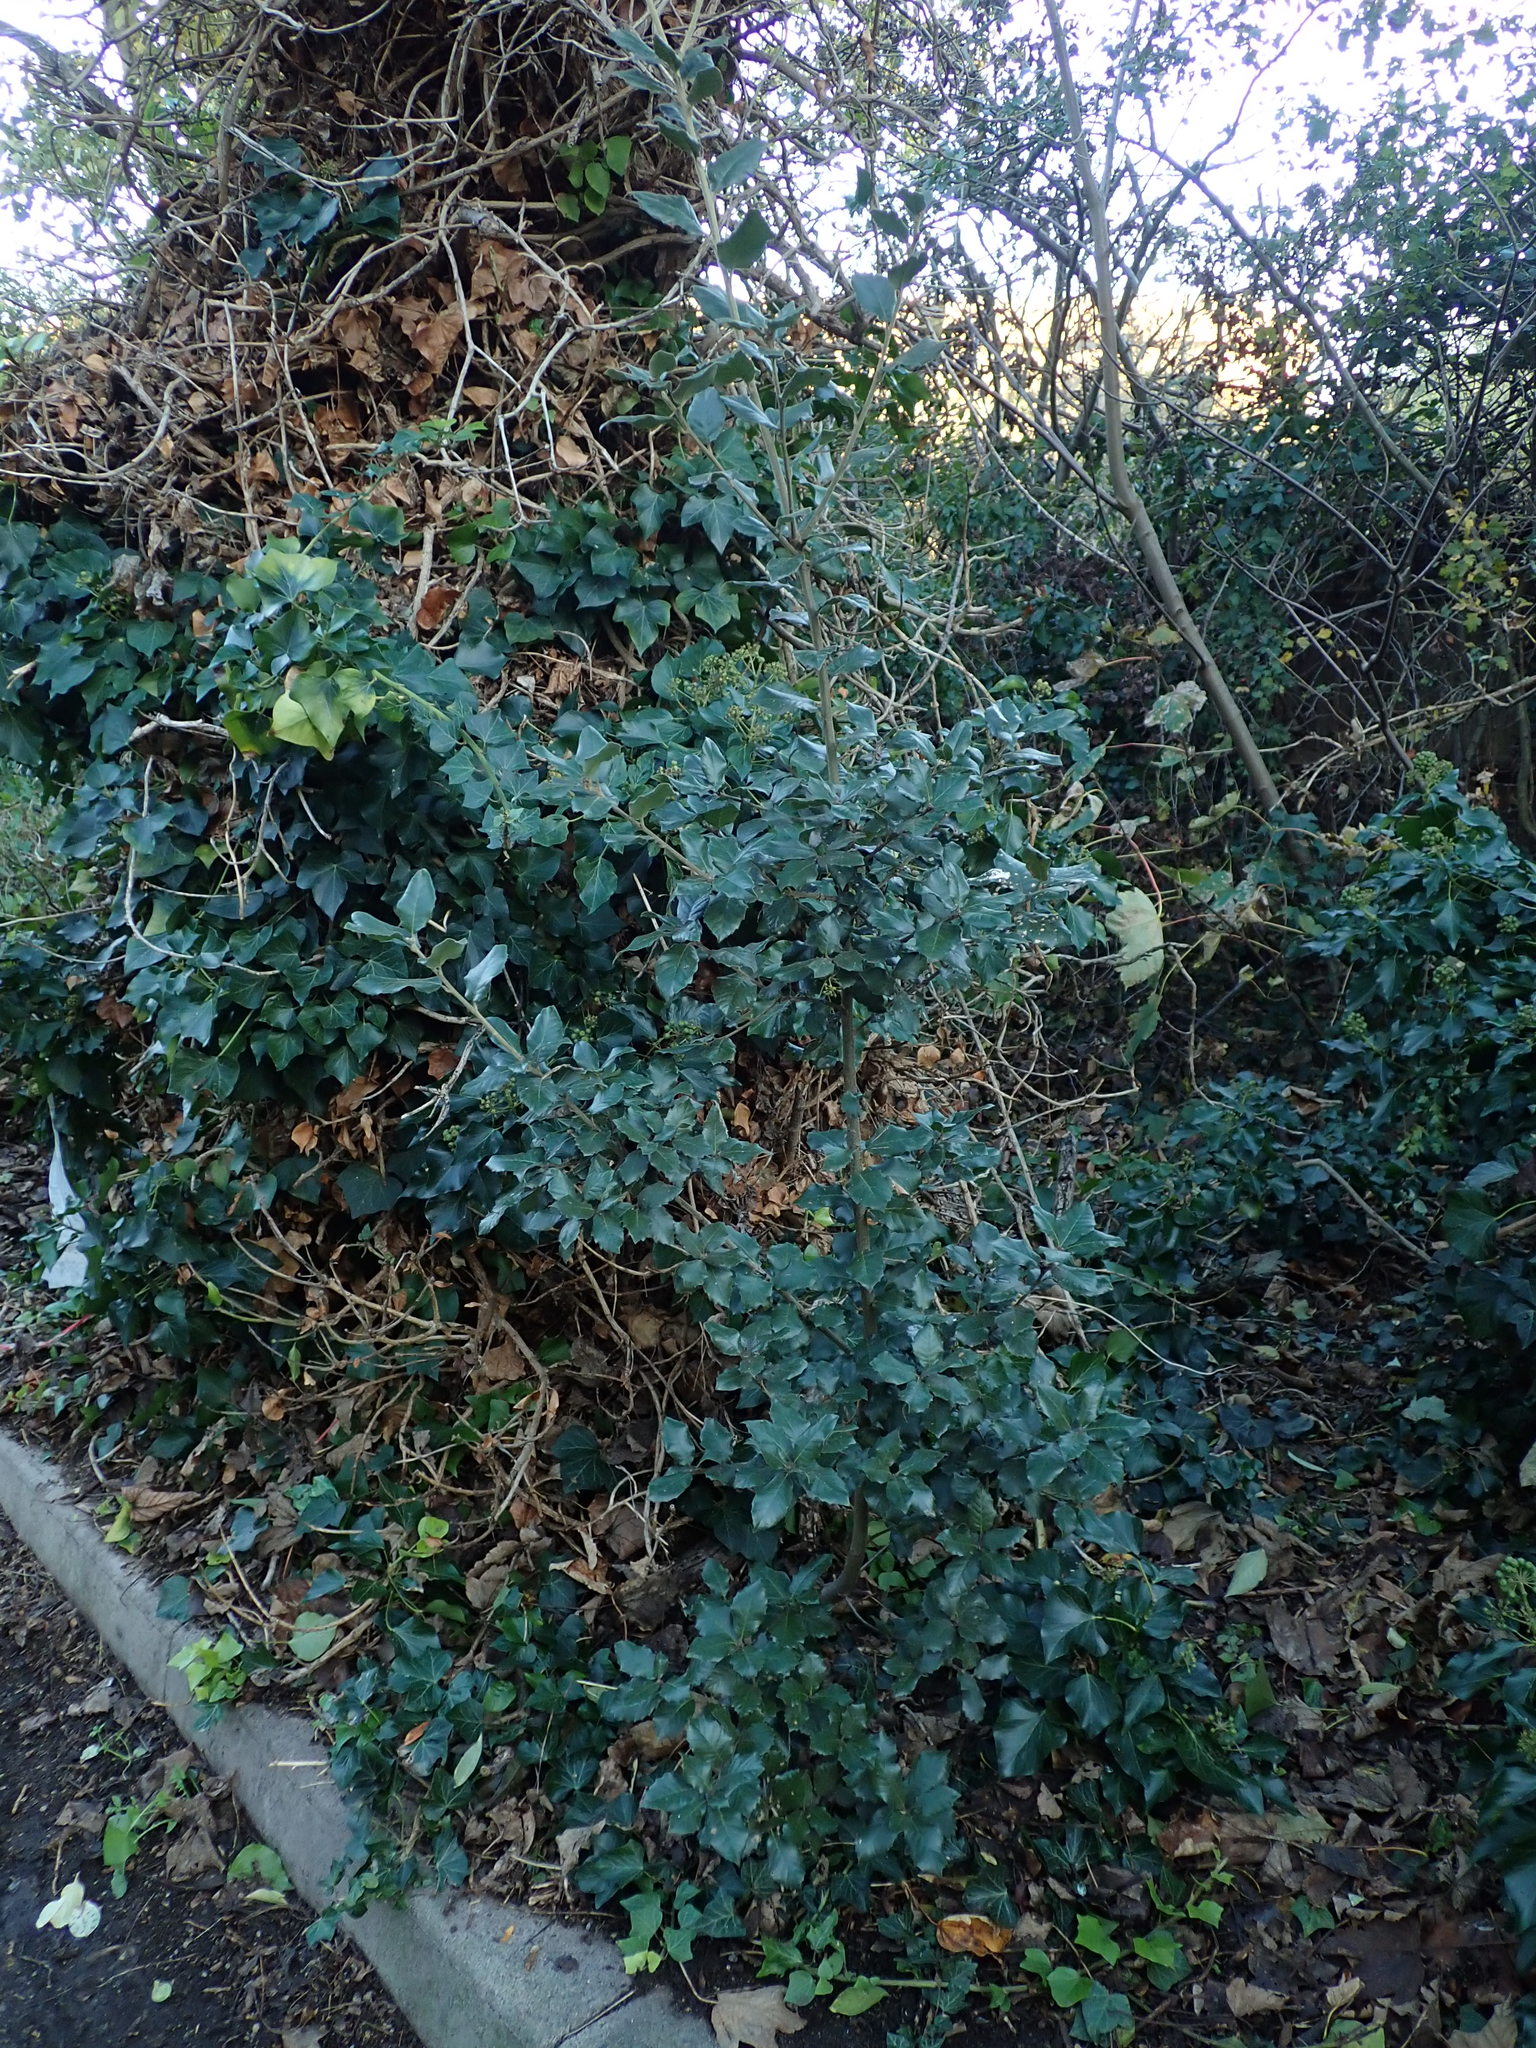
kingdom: Plantae
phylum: Tracheophyta
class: Magnoliopsida
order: Fagales
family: Fagaceae
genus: Quercus
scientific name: Quercus ilex
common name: Evergreen oak
